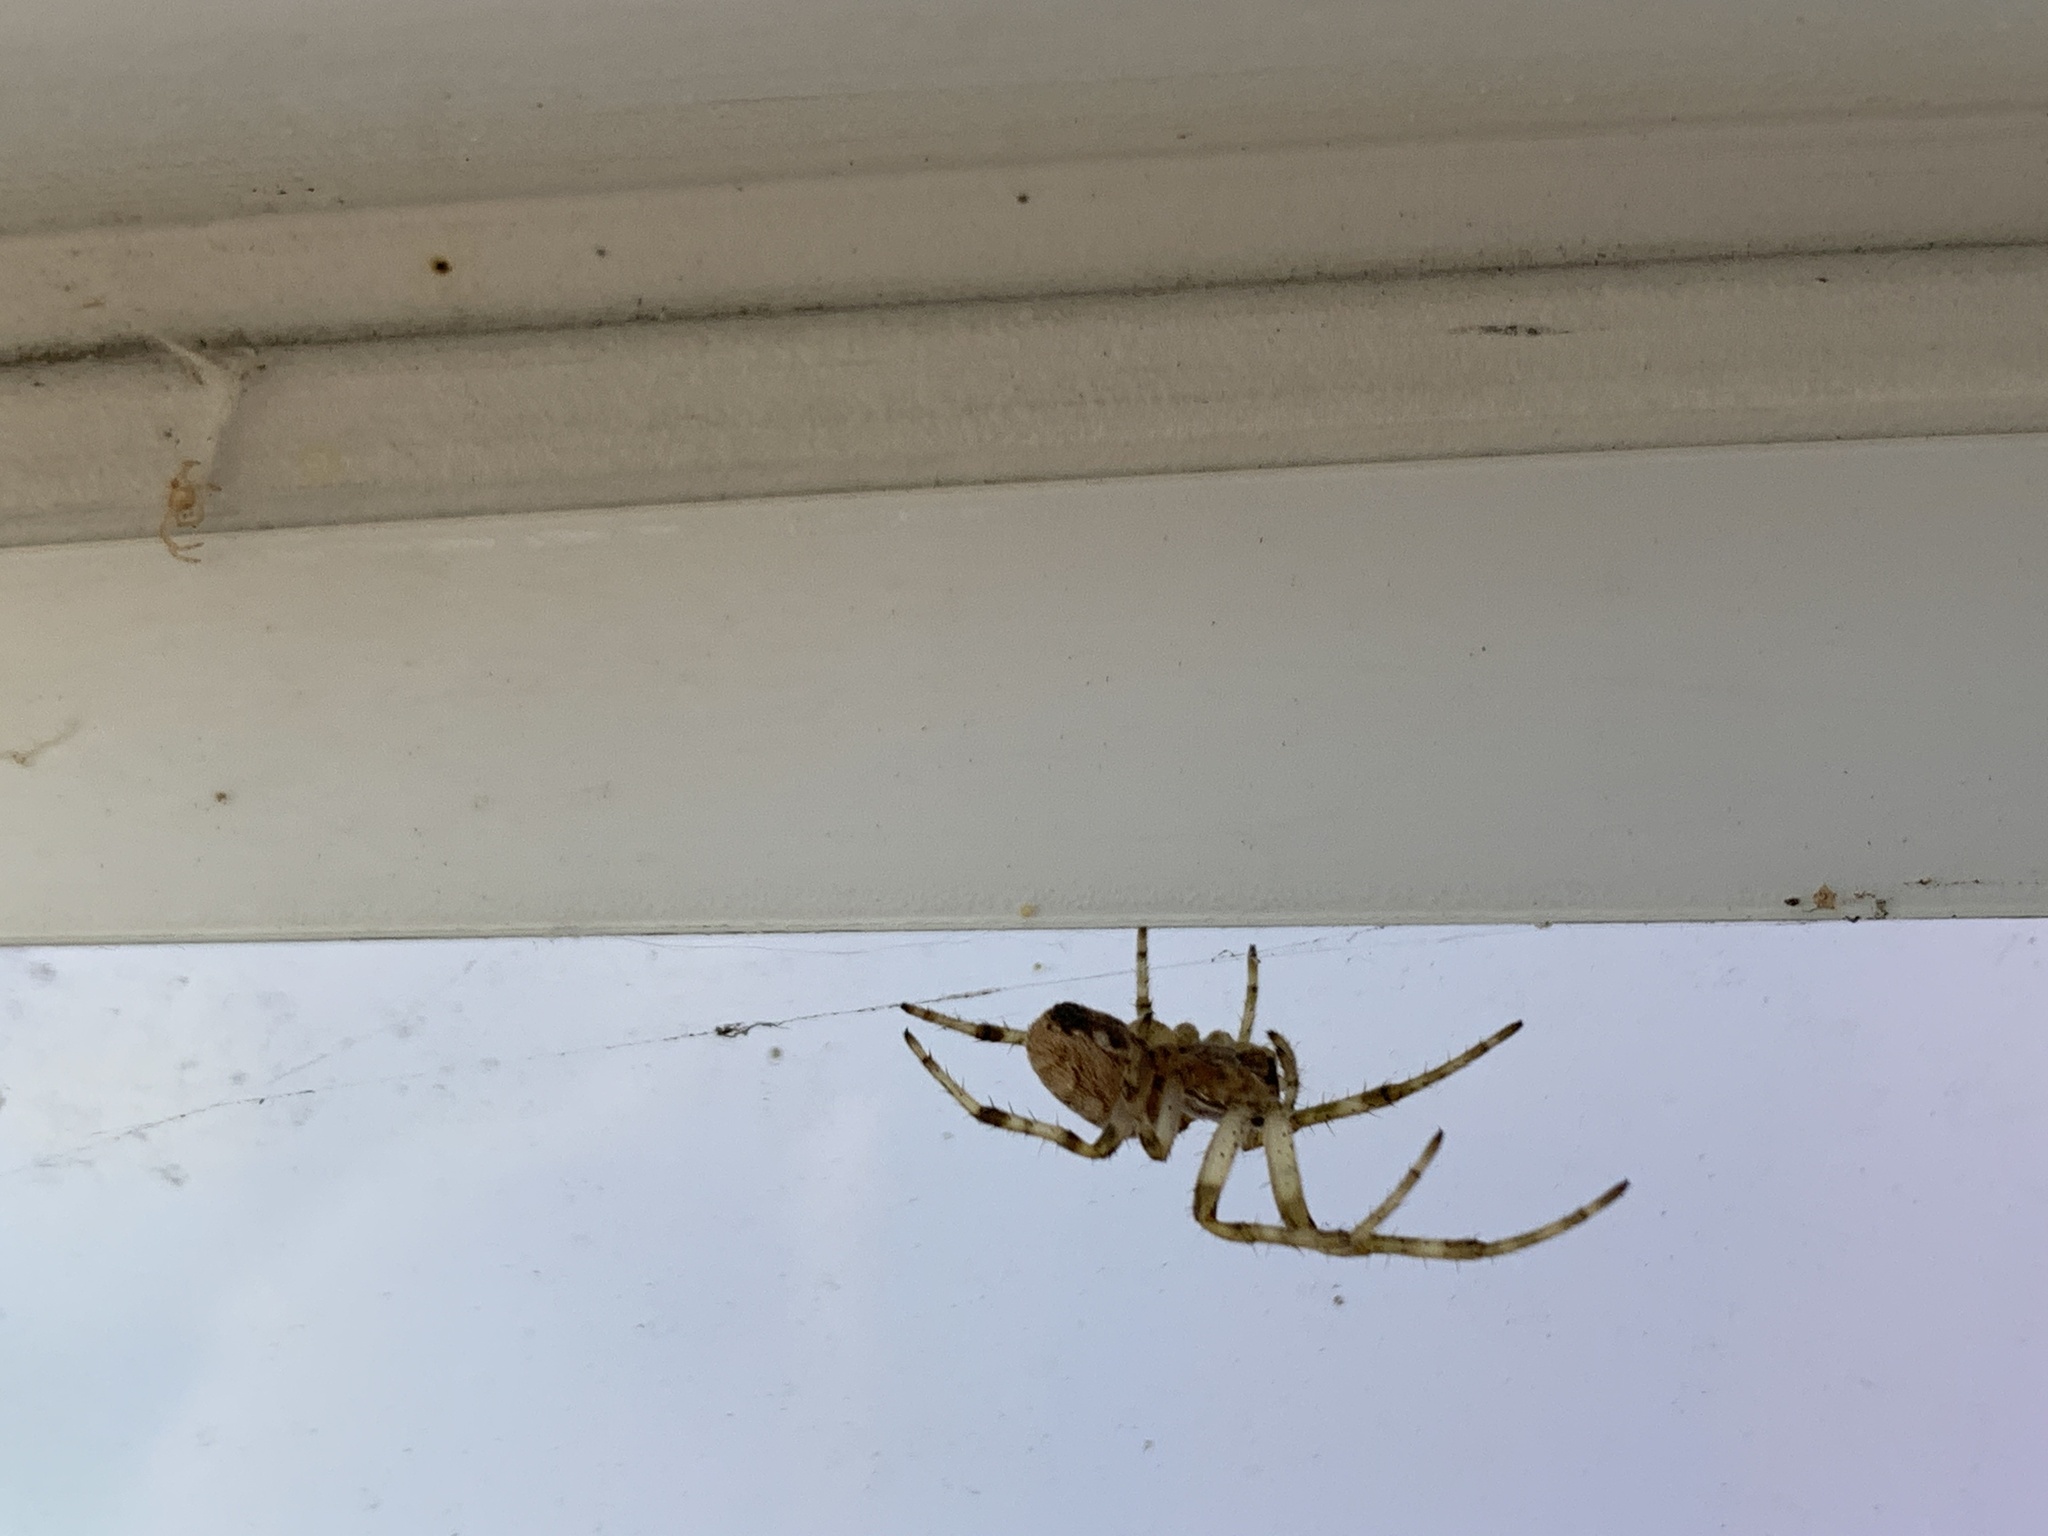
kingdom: Animalia
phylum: Arthropoda
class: Arachnida
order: Araneae
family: Araneidae
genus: Larinioides
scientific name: Larinioides sclopetarius
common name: Bridge orbweaver
